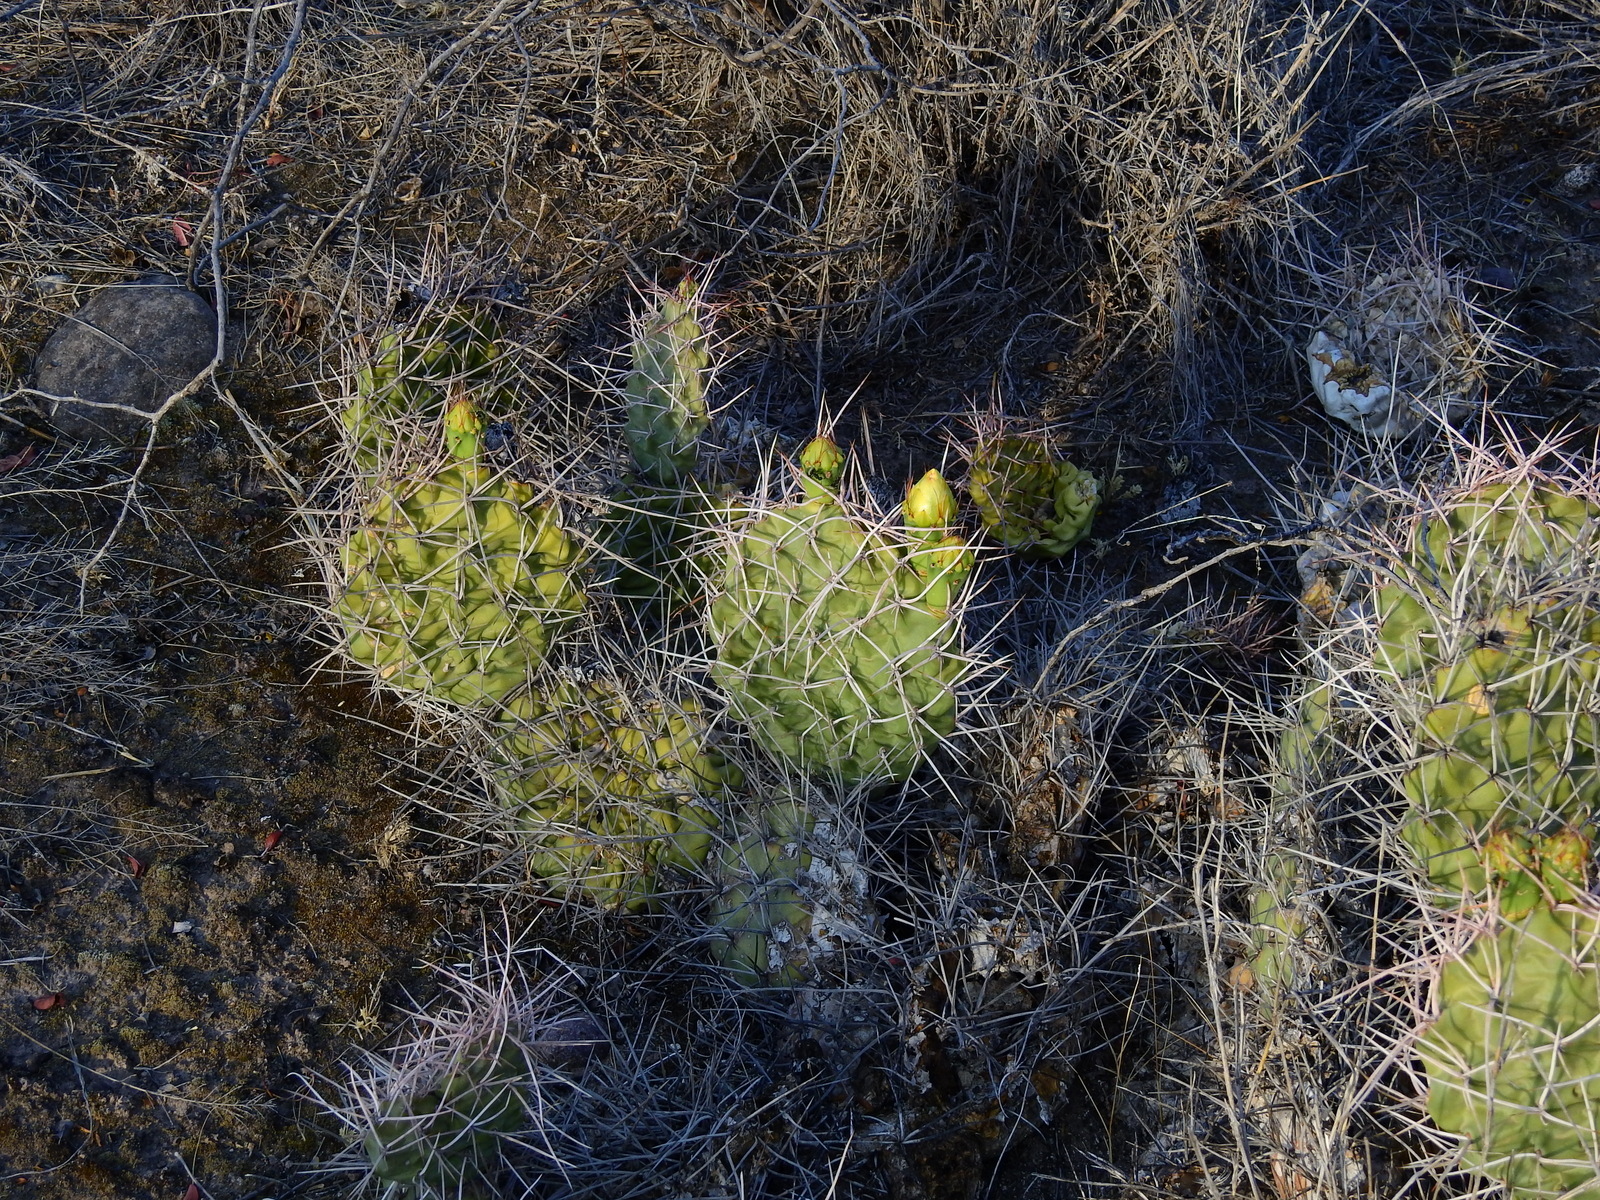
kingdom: Plantae
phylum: Tracheophyta
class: Magnoliopsida
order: Caryophyllales
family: Cactaceae
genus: Opuntia
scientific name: Opuntia sulphurea
